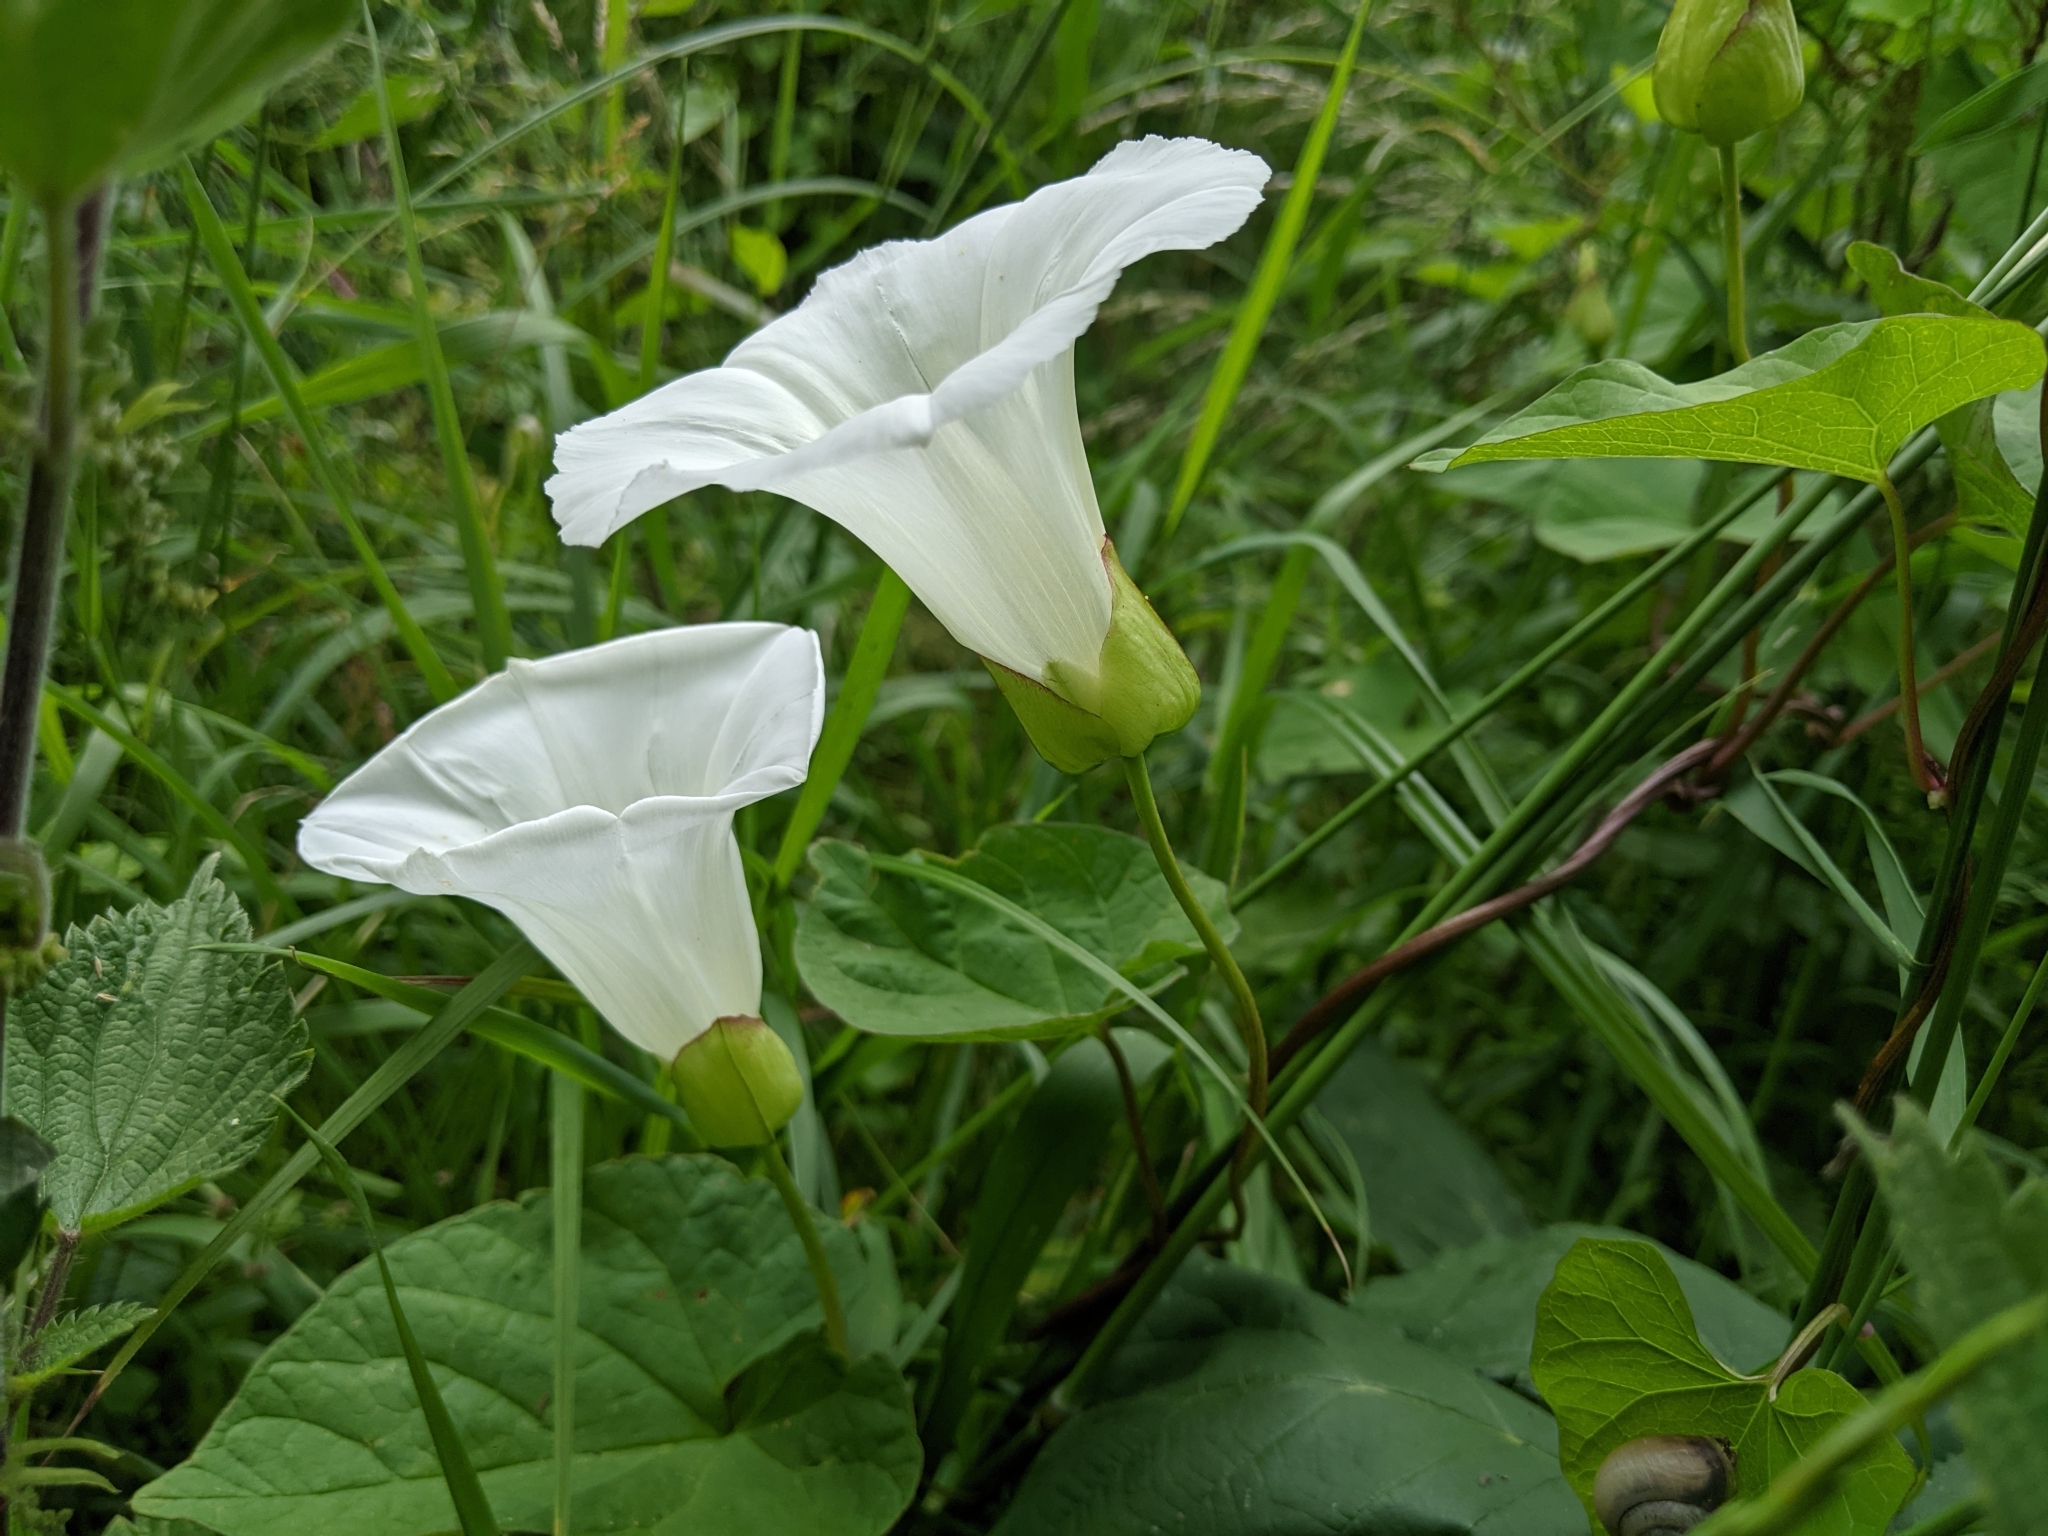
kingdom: Plantae
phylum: Tracheophyta
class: Magnoliopsida
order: Solanales
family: Convolvulaceae
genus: Calystegia
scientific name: Calystegia silvatica
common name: Large bindweed
